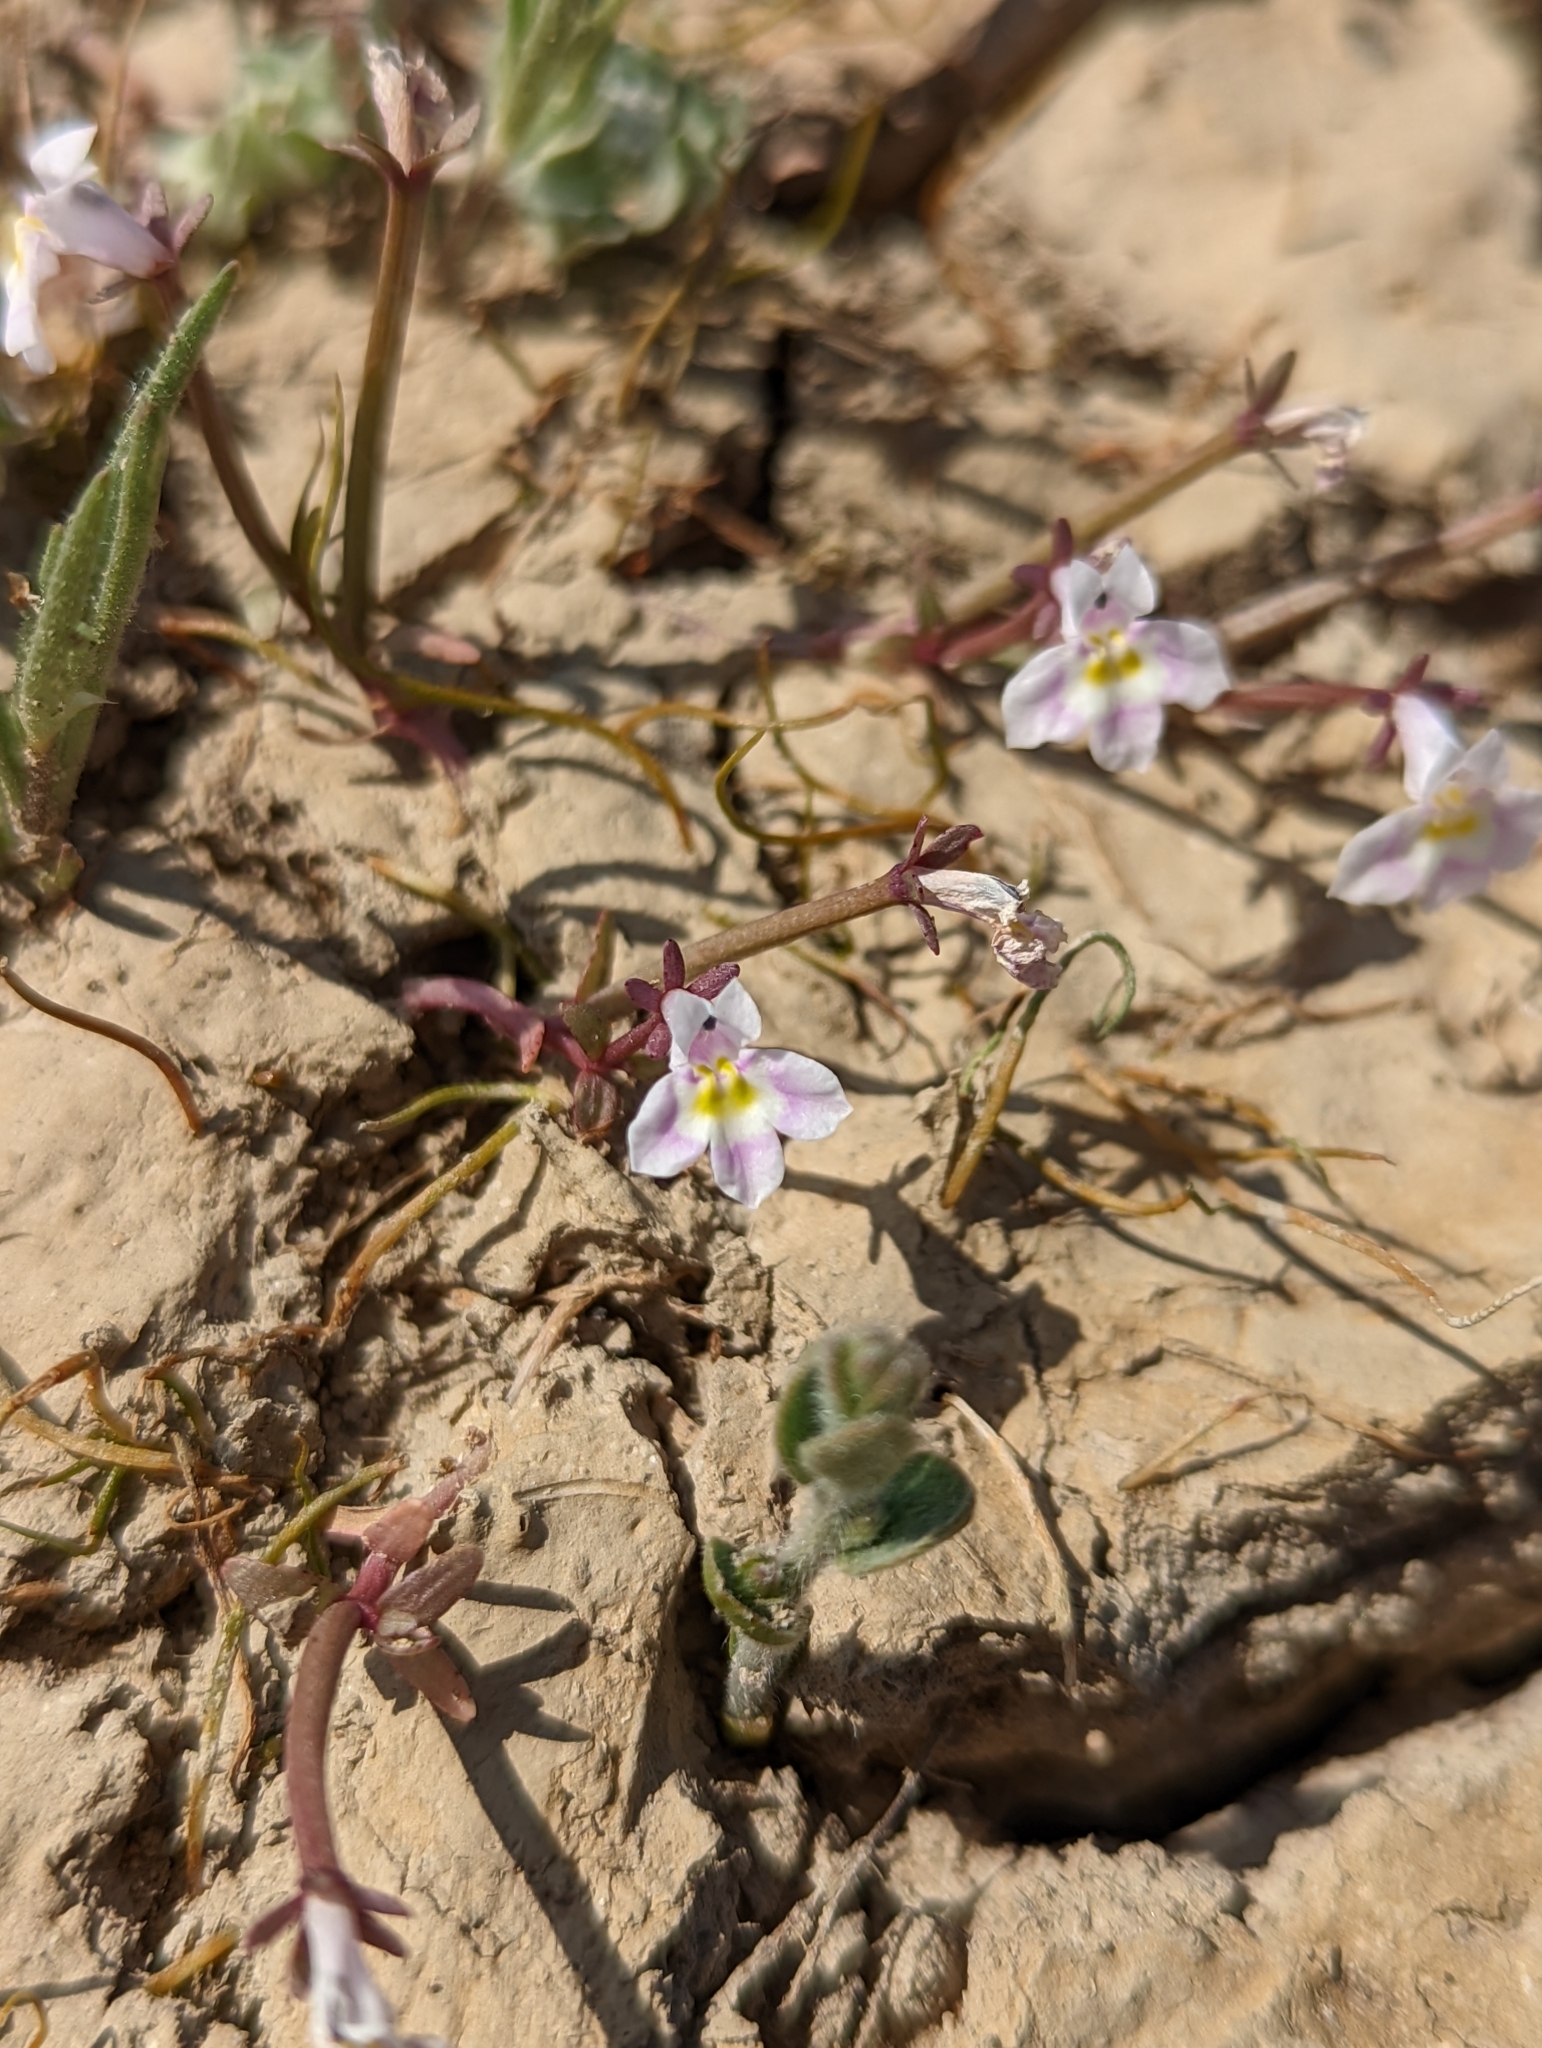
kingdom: Plantae
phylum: Tracheophyta
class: Magnoliopsida
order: Asterales
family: Campanulaceae
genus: Downingia
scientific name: Downingia bella
